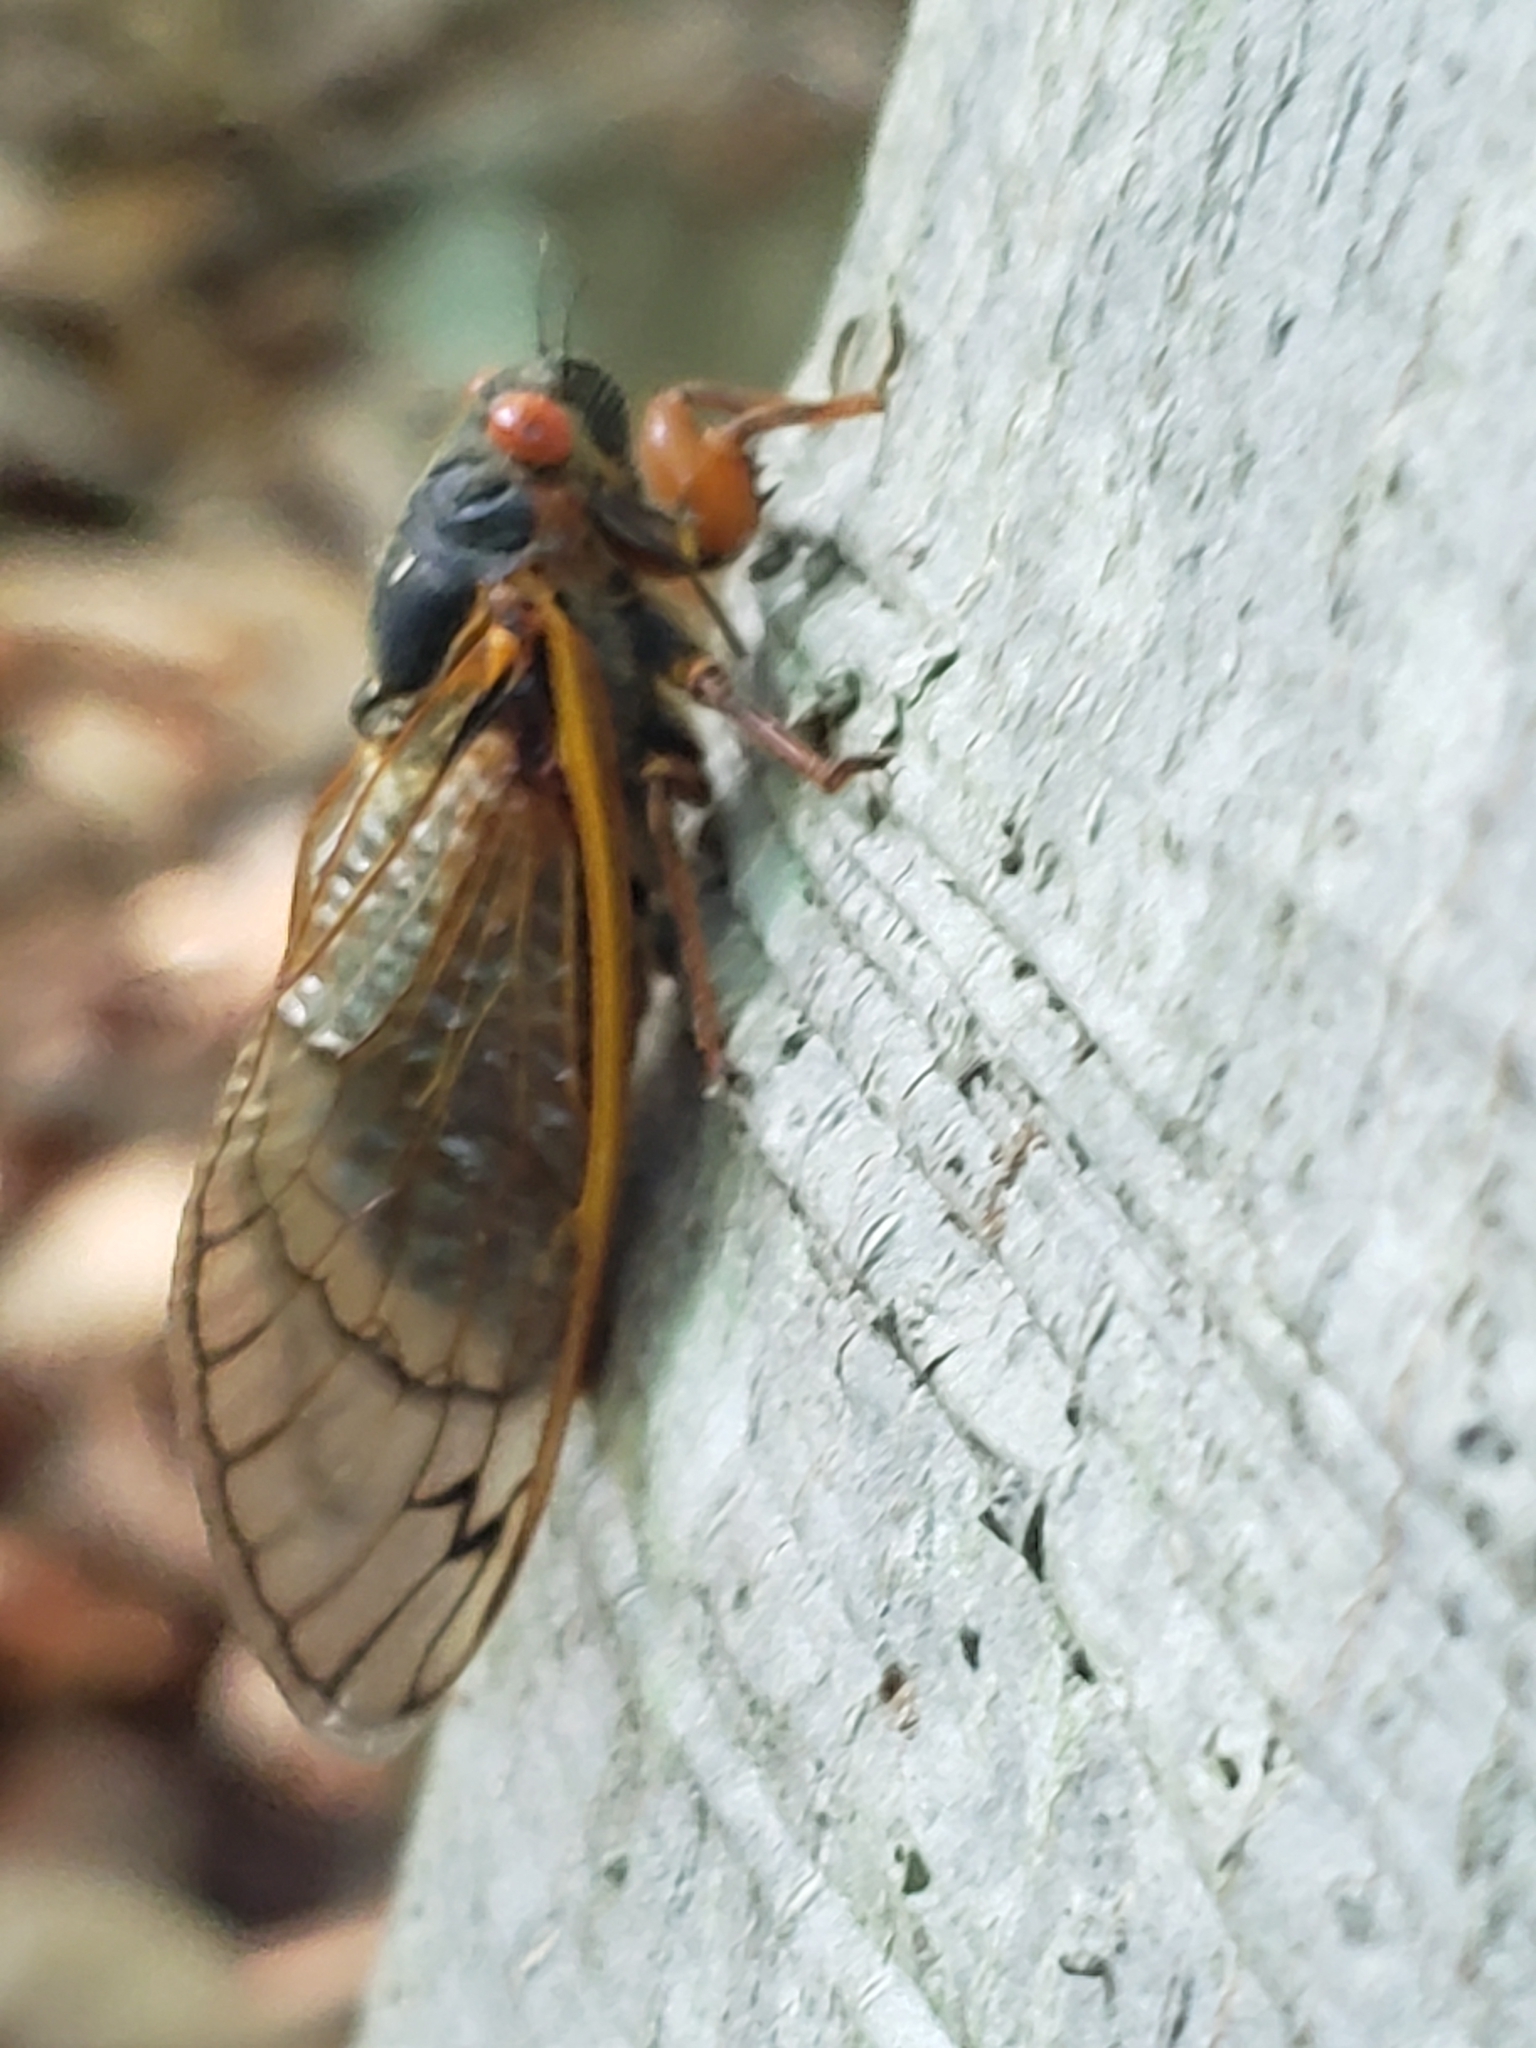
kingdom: Animalia
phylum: Arthropoda
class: Insecta
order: Hemiptera
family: Cicadidae
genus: Magicicada
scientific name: Magicicada septendecim
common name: Periodical cicada
